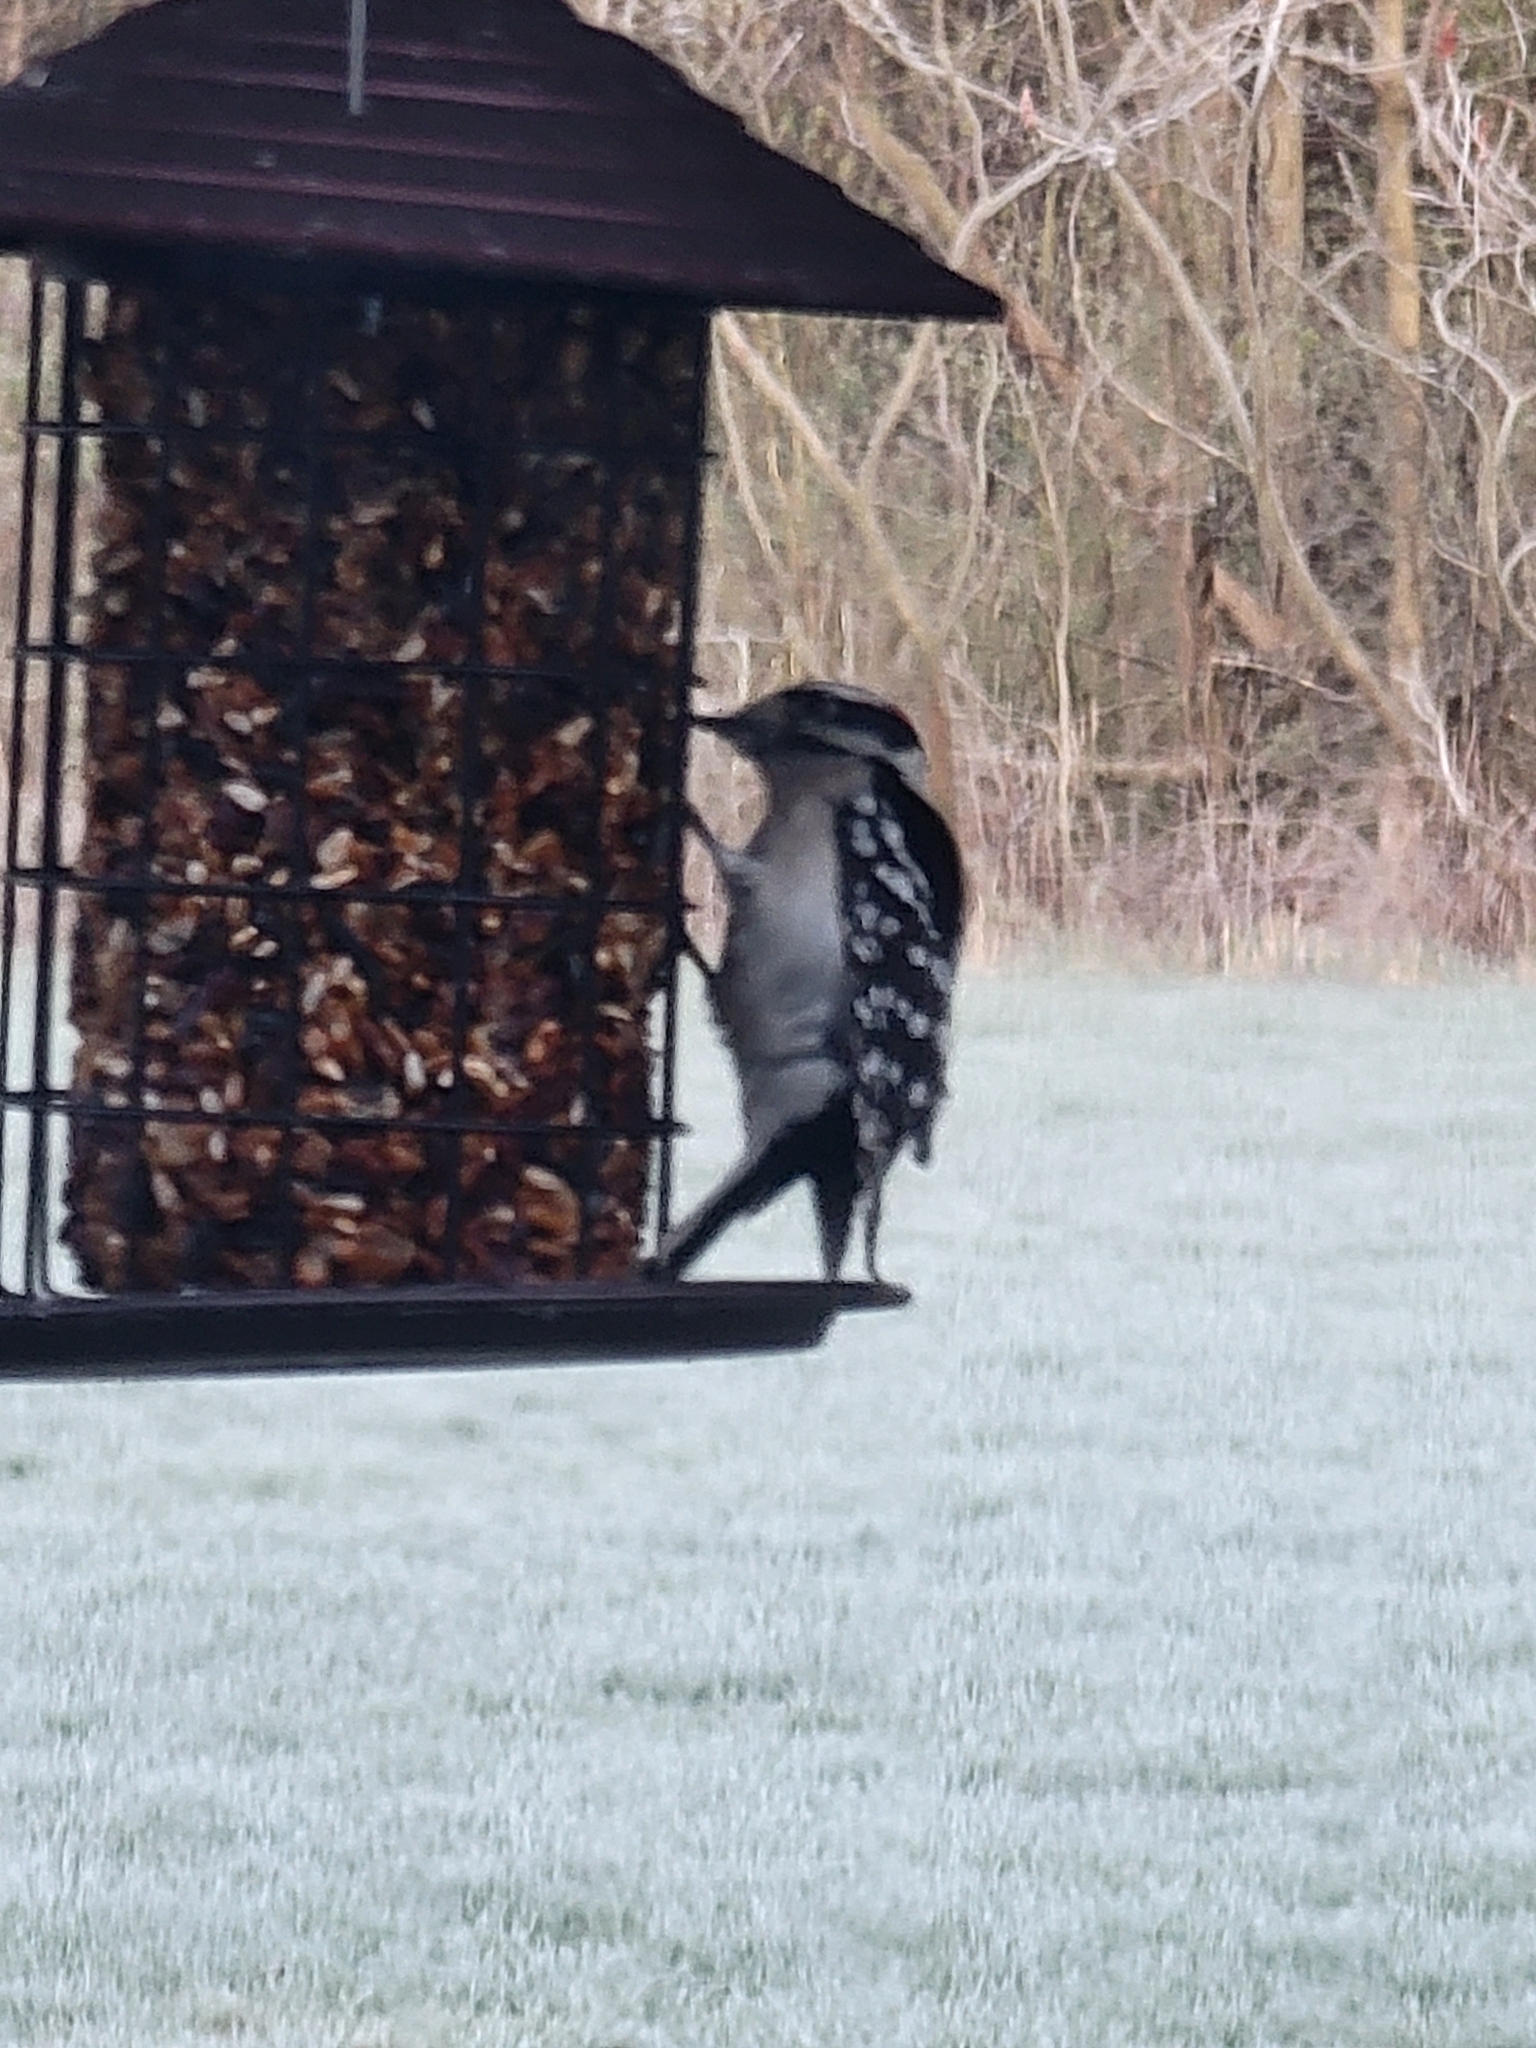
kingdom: Animalia
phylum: Chordata
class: Aves
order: Piciformes
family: Picidae
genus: Dryobates
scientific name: Dryobates pubescens
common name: Downy woodpecker
